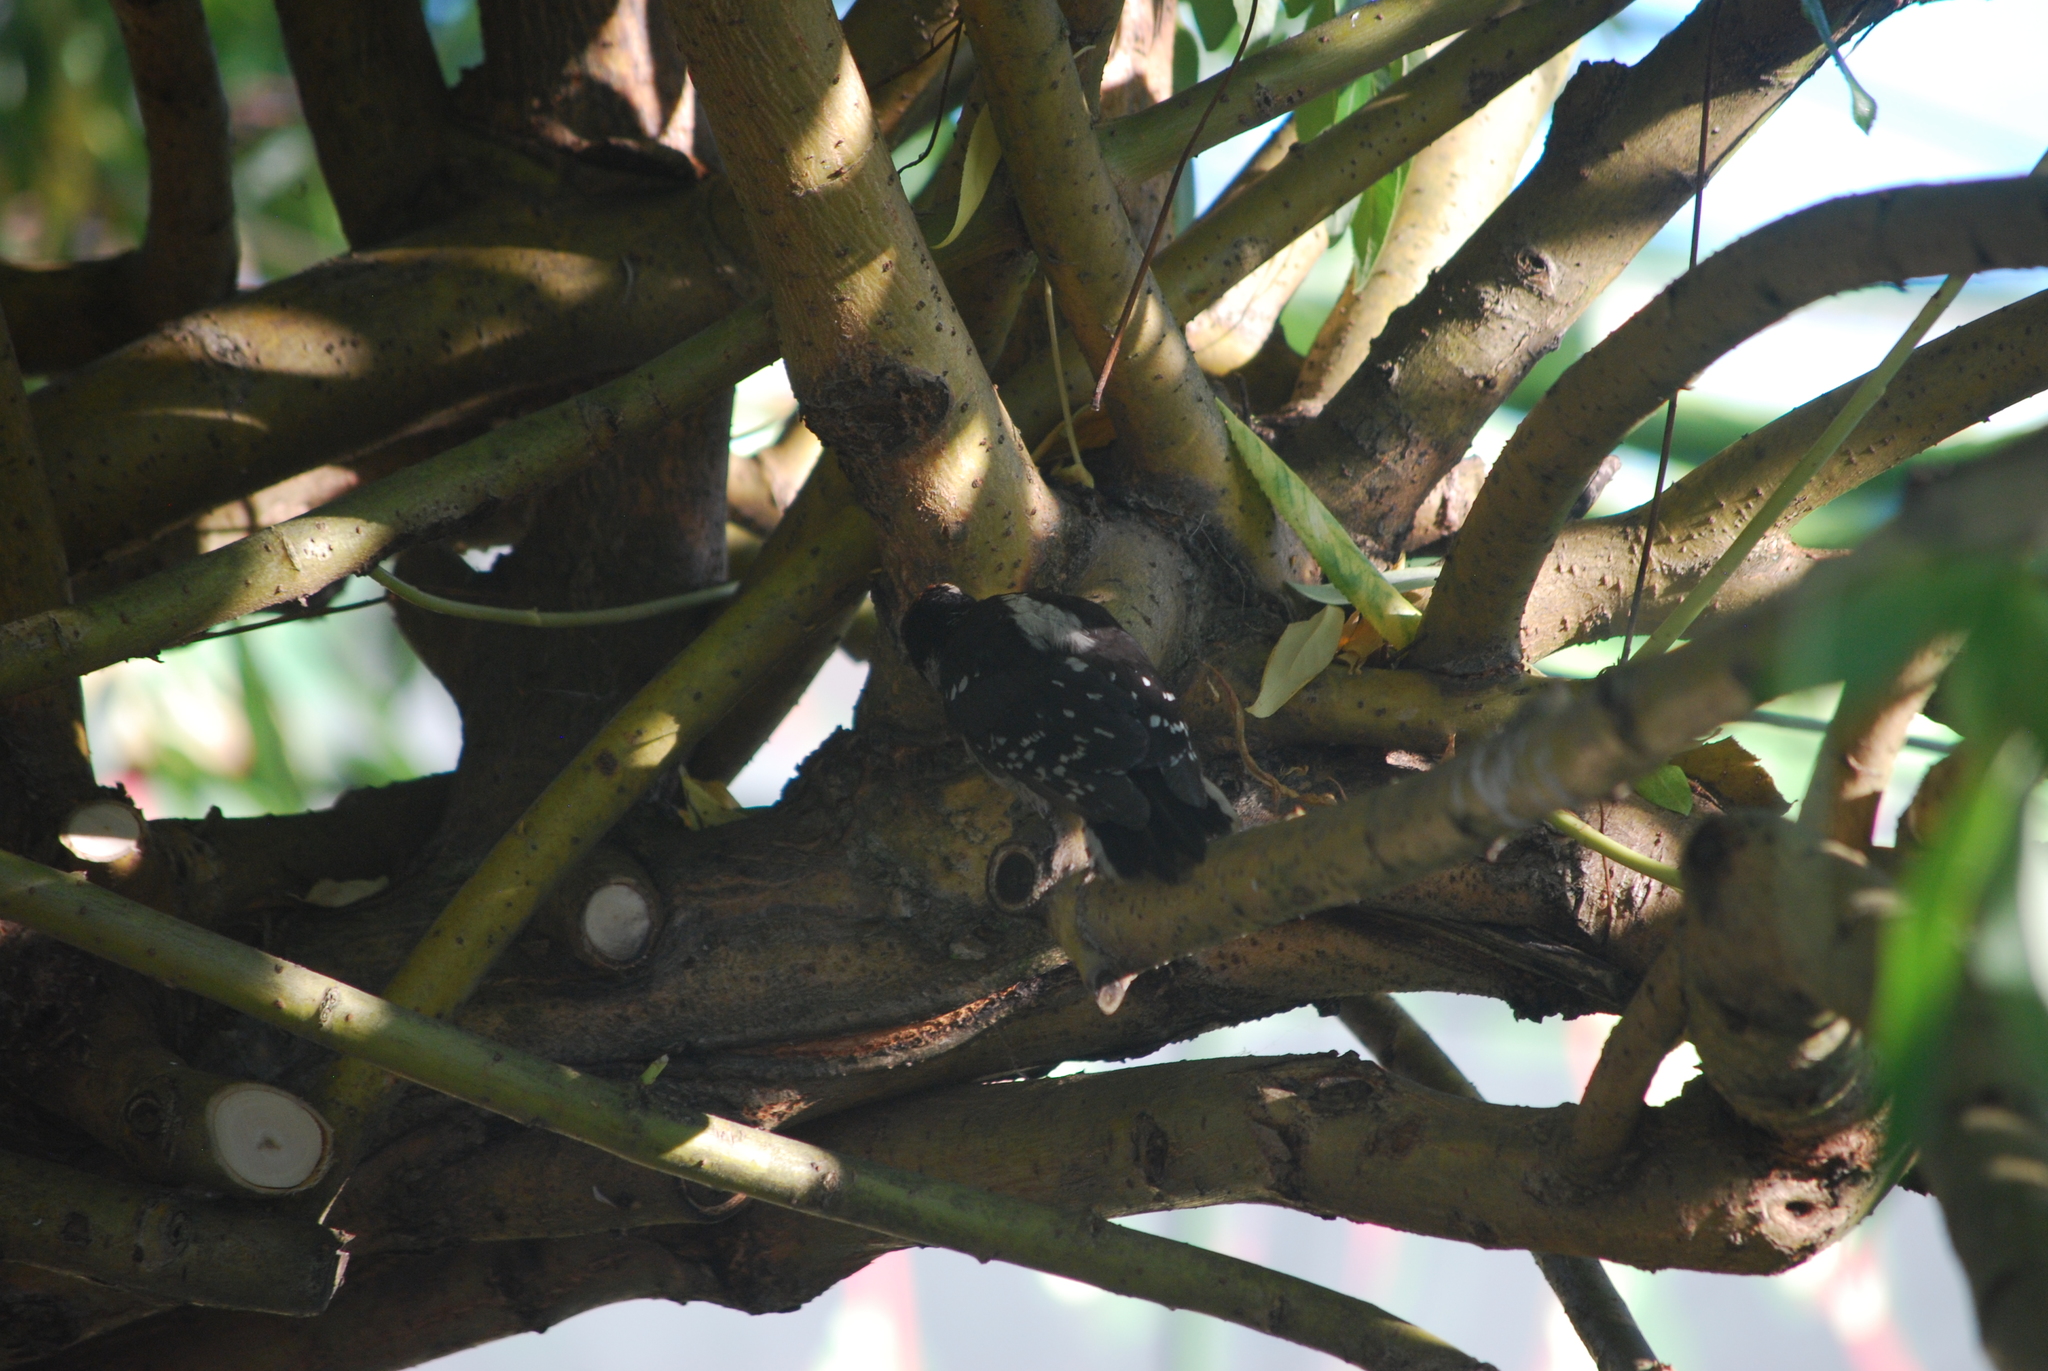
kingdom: Animalia
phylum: Chordata
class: Aves
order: Piciformes
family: Picidae
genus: Dryobates
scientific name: Dryobates pubescens
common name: Downy woodpecker
